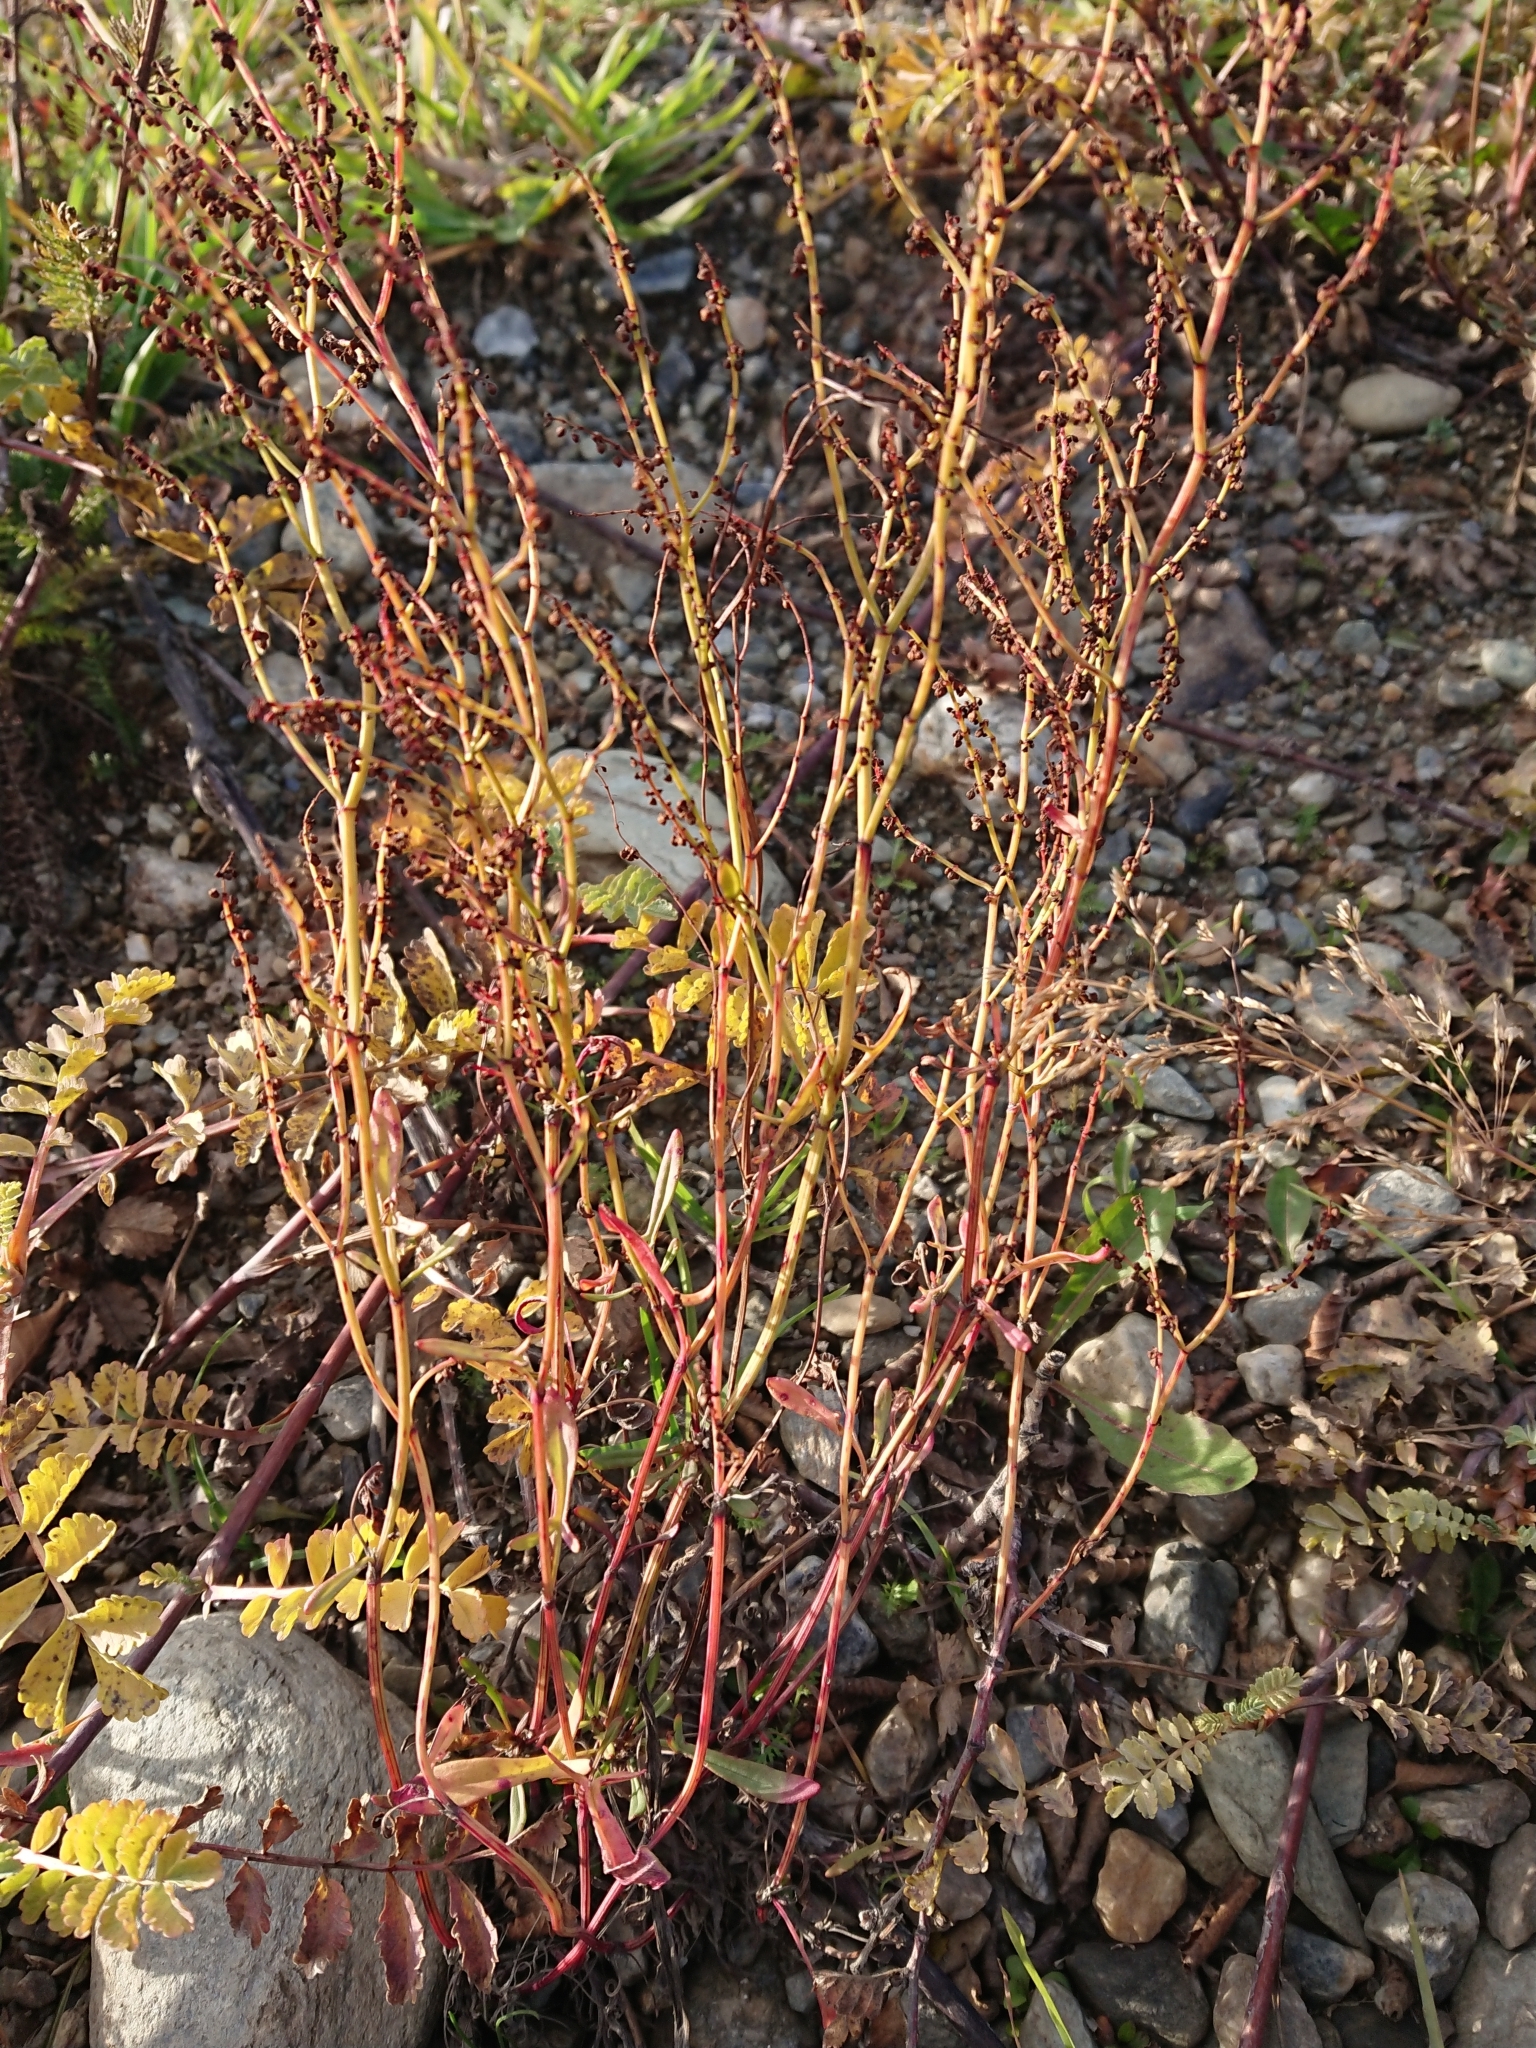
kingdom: Plantae
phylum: Tracheophyta
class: Magnoliopsida
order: Caryophyllales
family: Polygonaceae
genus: Rumex
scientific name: Rumex acetosella
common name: Common sheep sorrel
